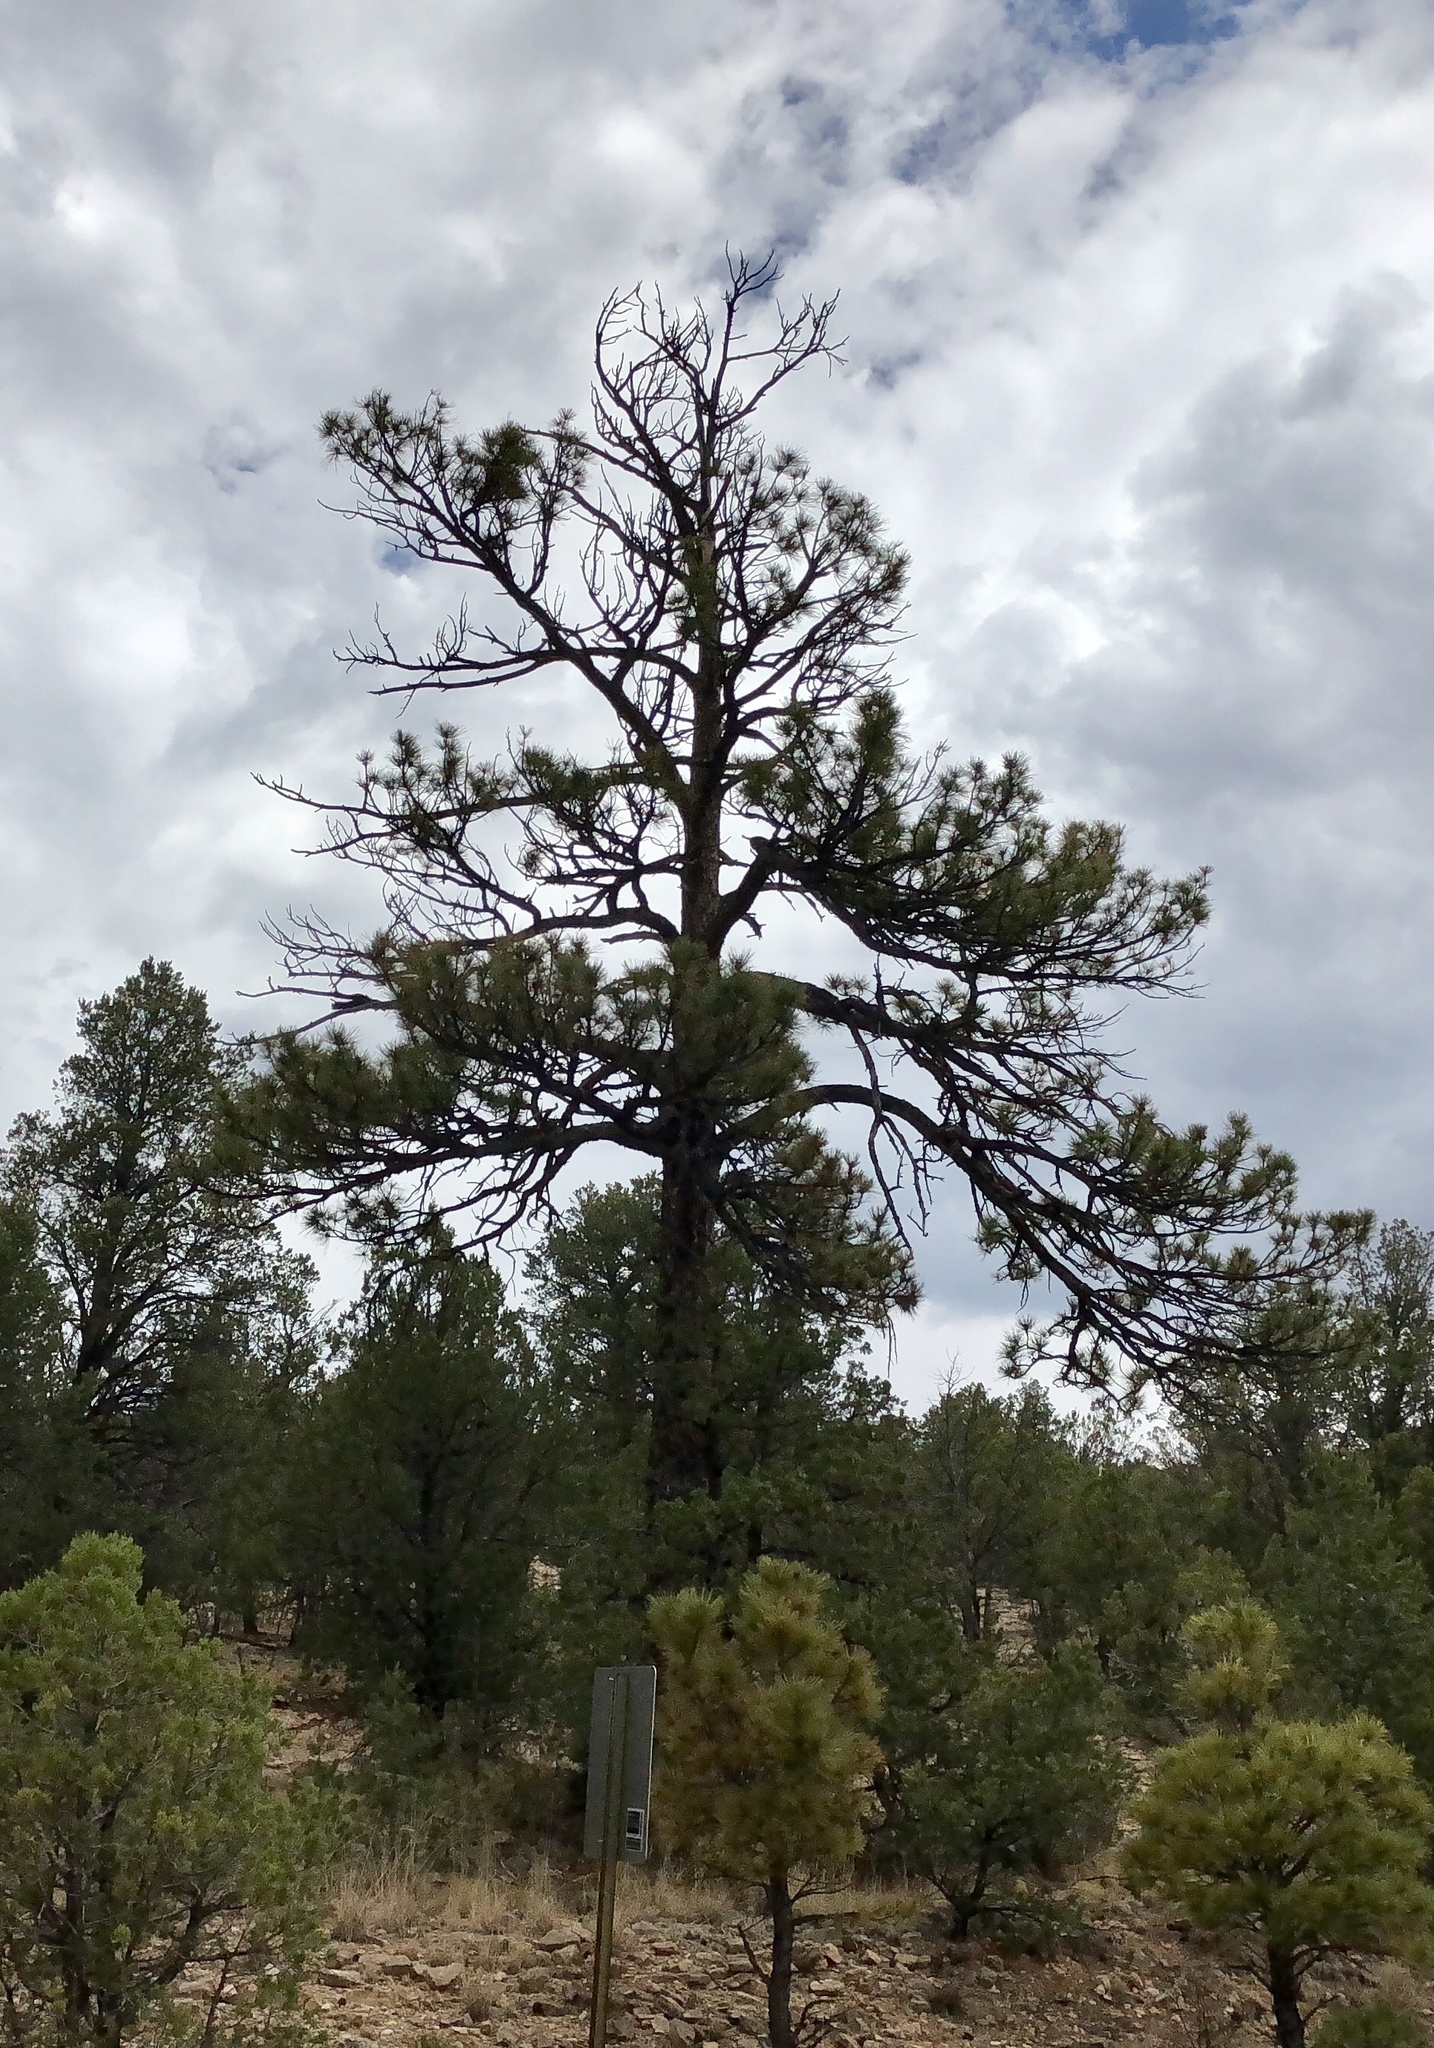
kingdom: Plantae
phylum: Tracheophyta
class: Pinopsida
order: Pinales
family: Pinaceae
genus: Pinus
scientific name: Pinus ponderosa
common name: Western yellow-pine
